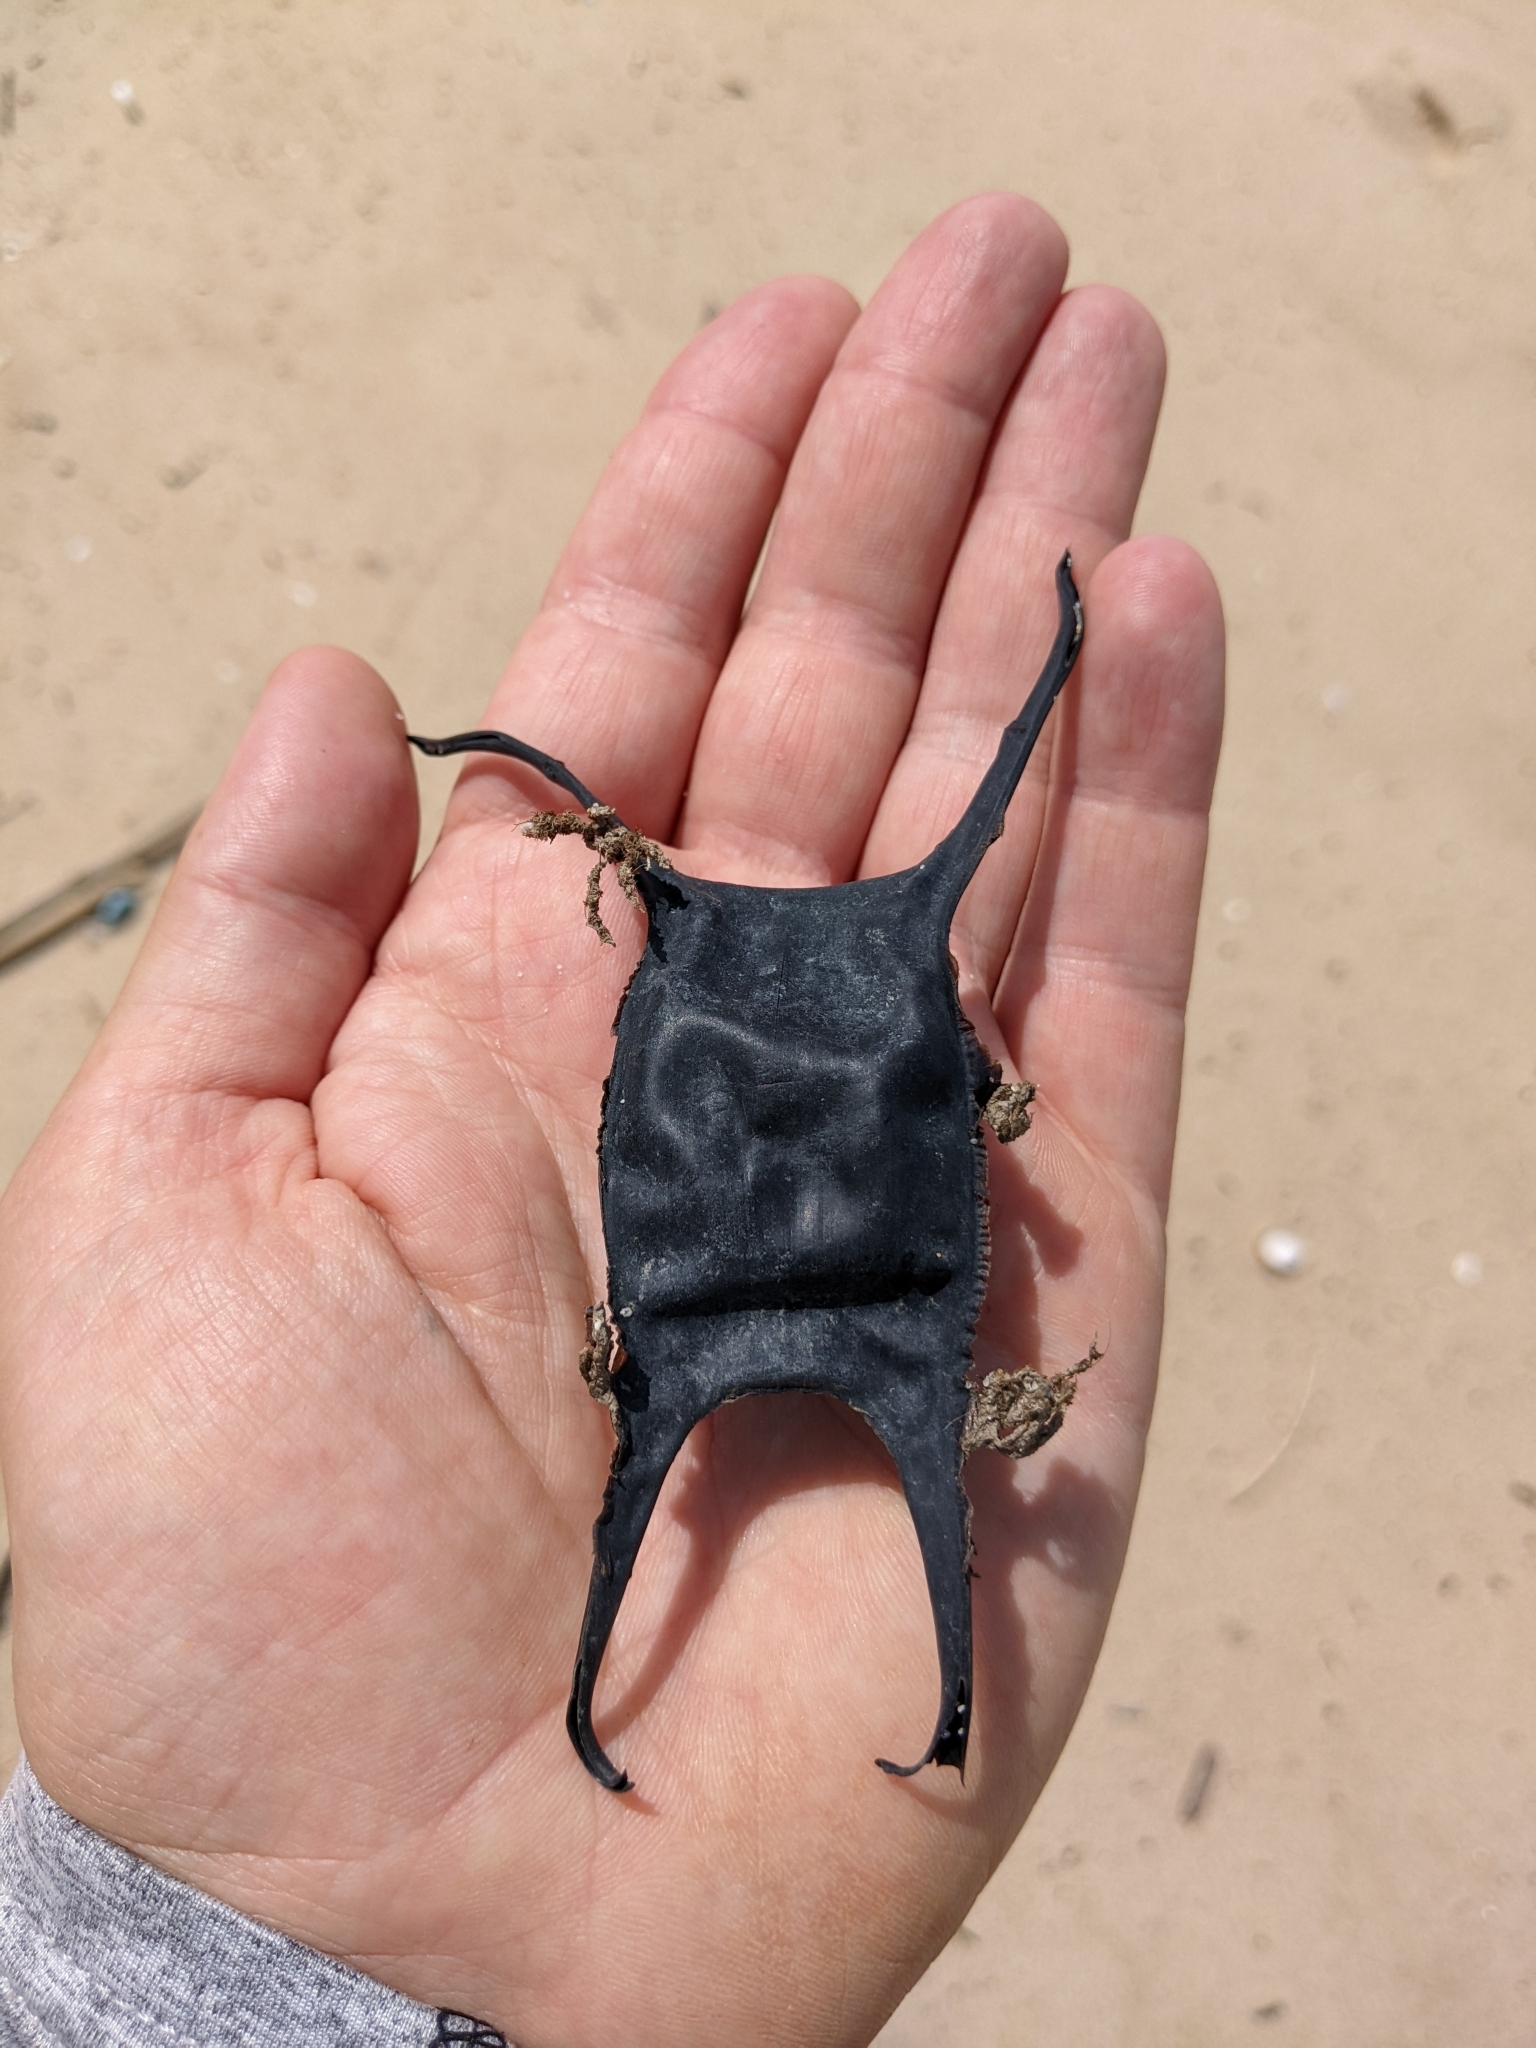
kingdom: Animalia
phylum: Chordata
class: Elasmobranchii
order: Rajiformes
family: Rajidae
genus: Raja
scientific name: Raja undulata
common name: Undulate ray
